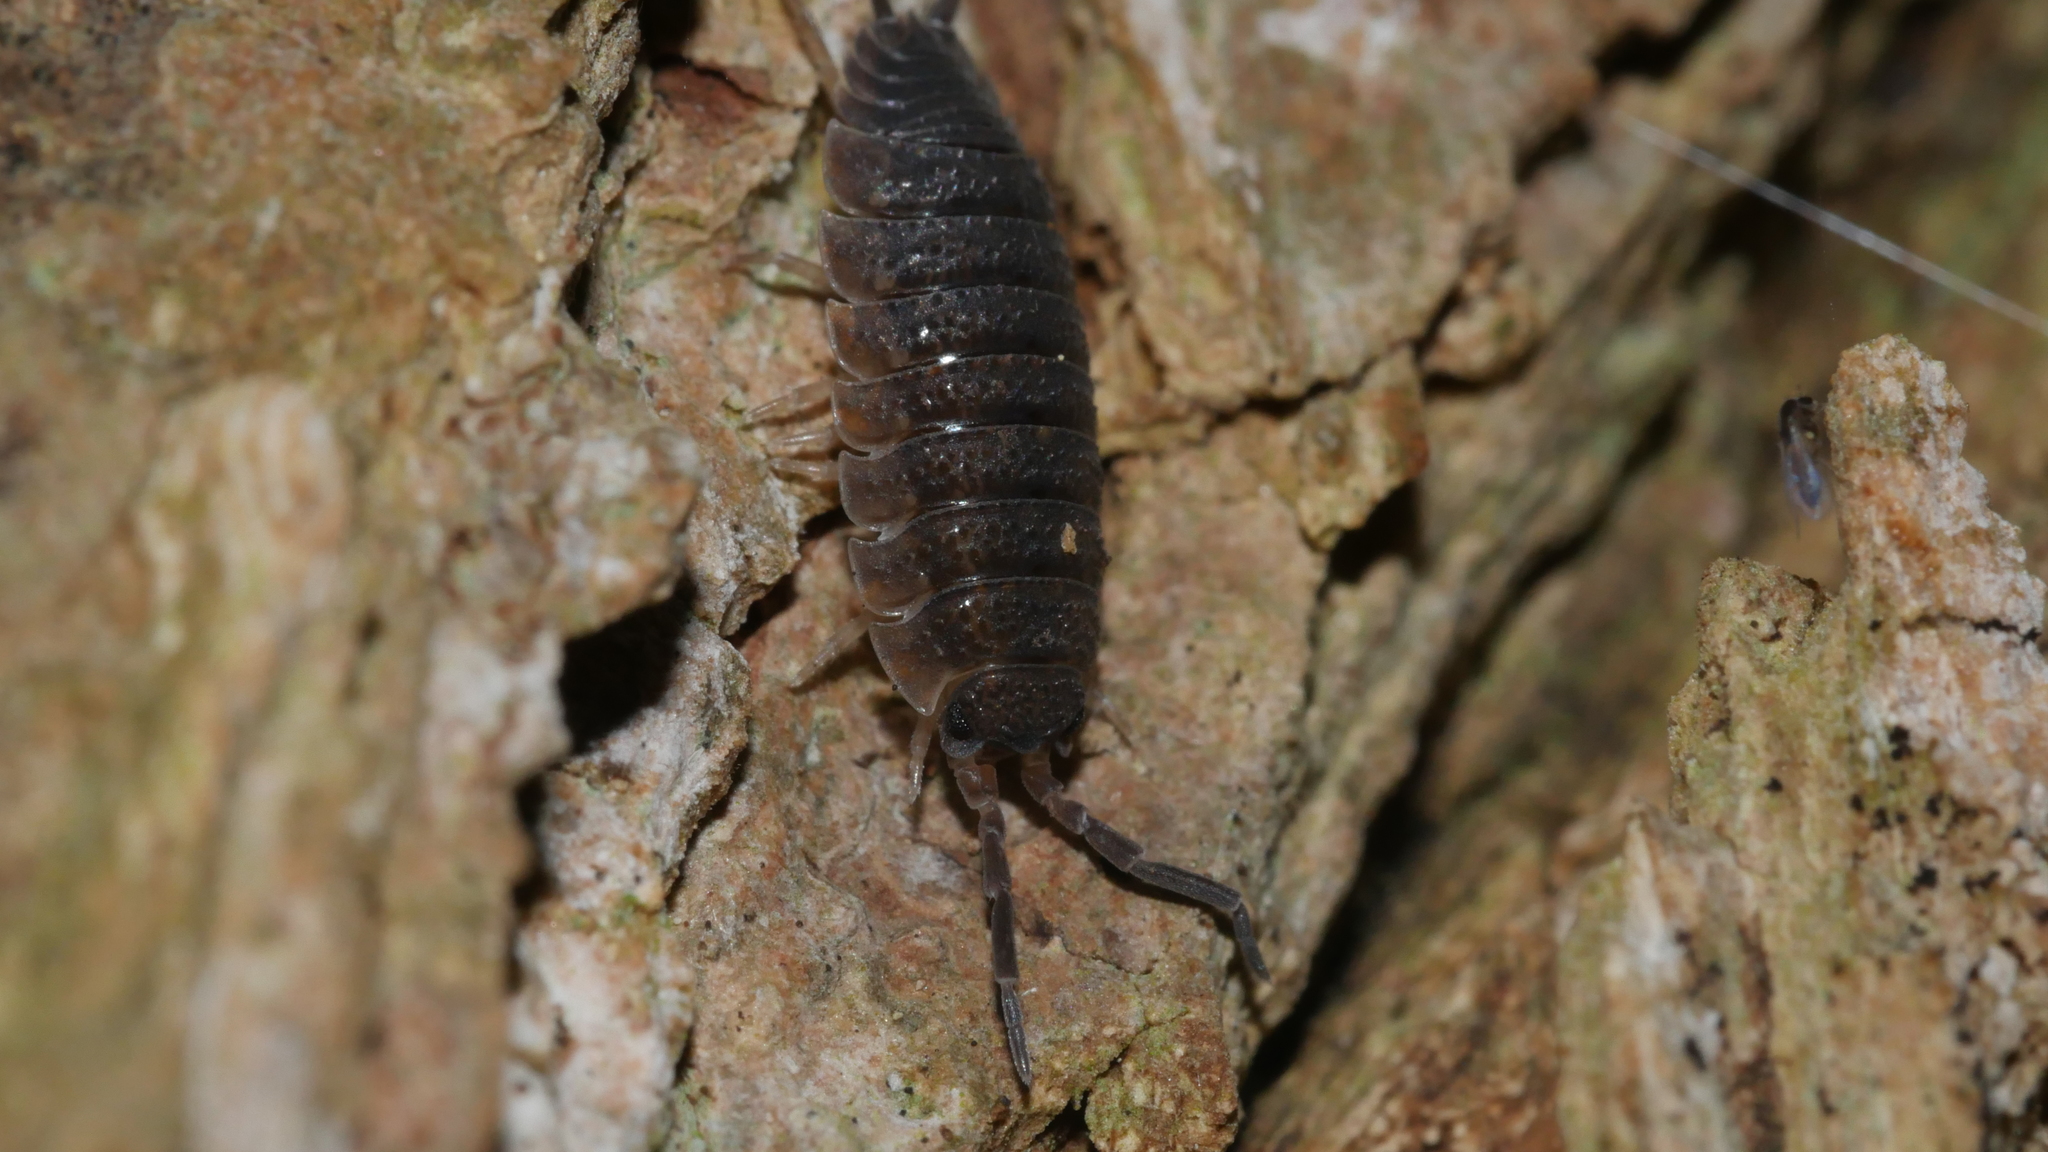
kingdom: Animalia
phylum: Arthropoda
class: Malacostraca
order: Isopoda
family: Porcellionidae
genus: Porcellio
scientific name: Porcellio scaber
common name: Common rough woodlouse
